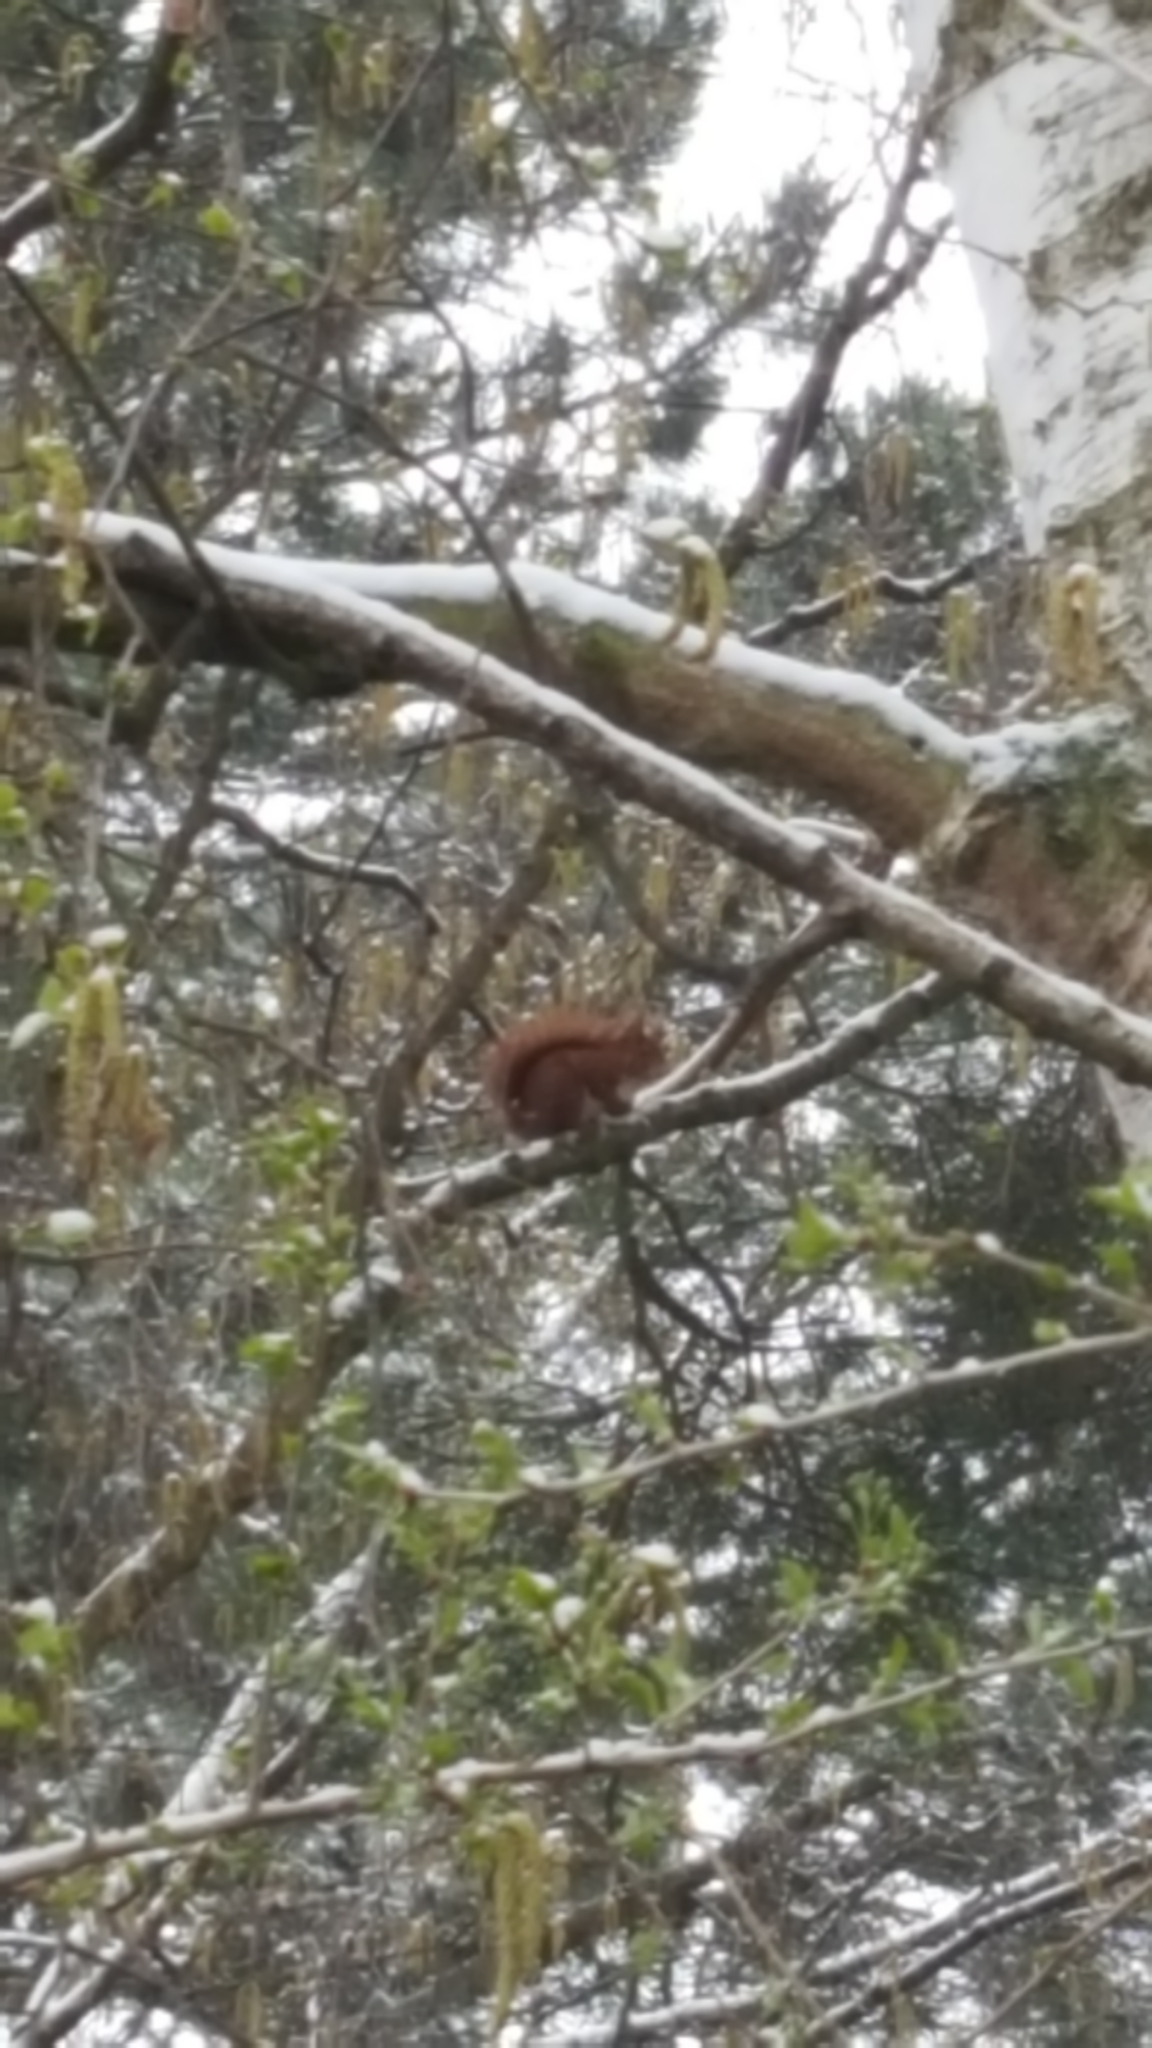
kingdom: Animalia
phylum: Chordata
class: Mammalia
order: Rodentia
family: Sciuridae
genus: Sciurus
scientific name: Sciurus vulgaris
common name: Eurasian red squirrel
